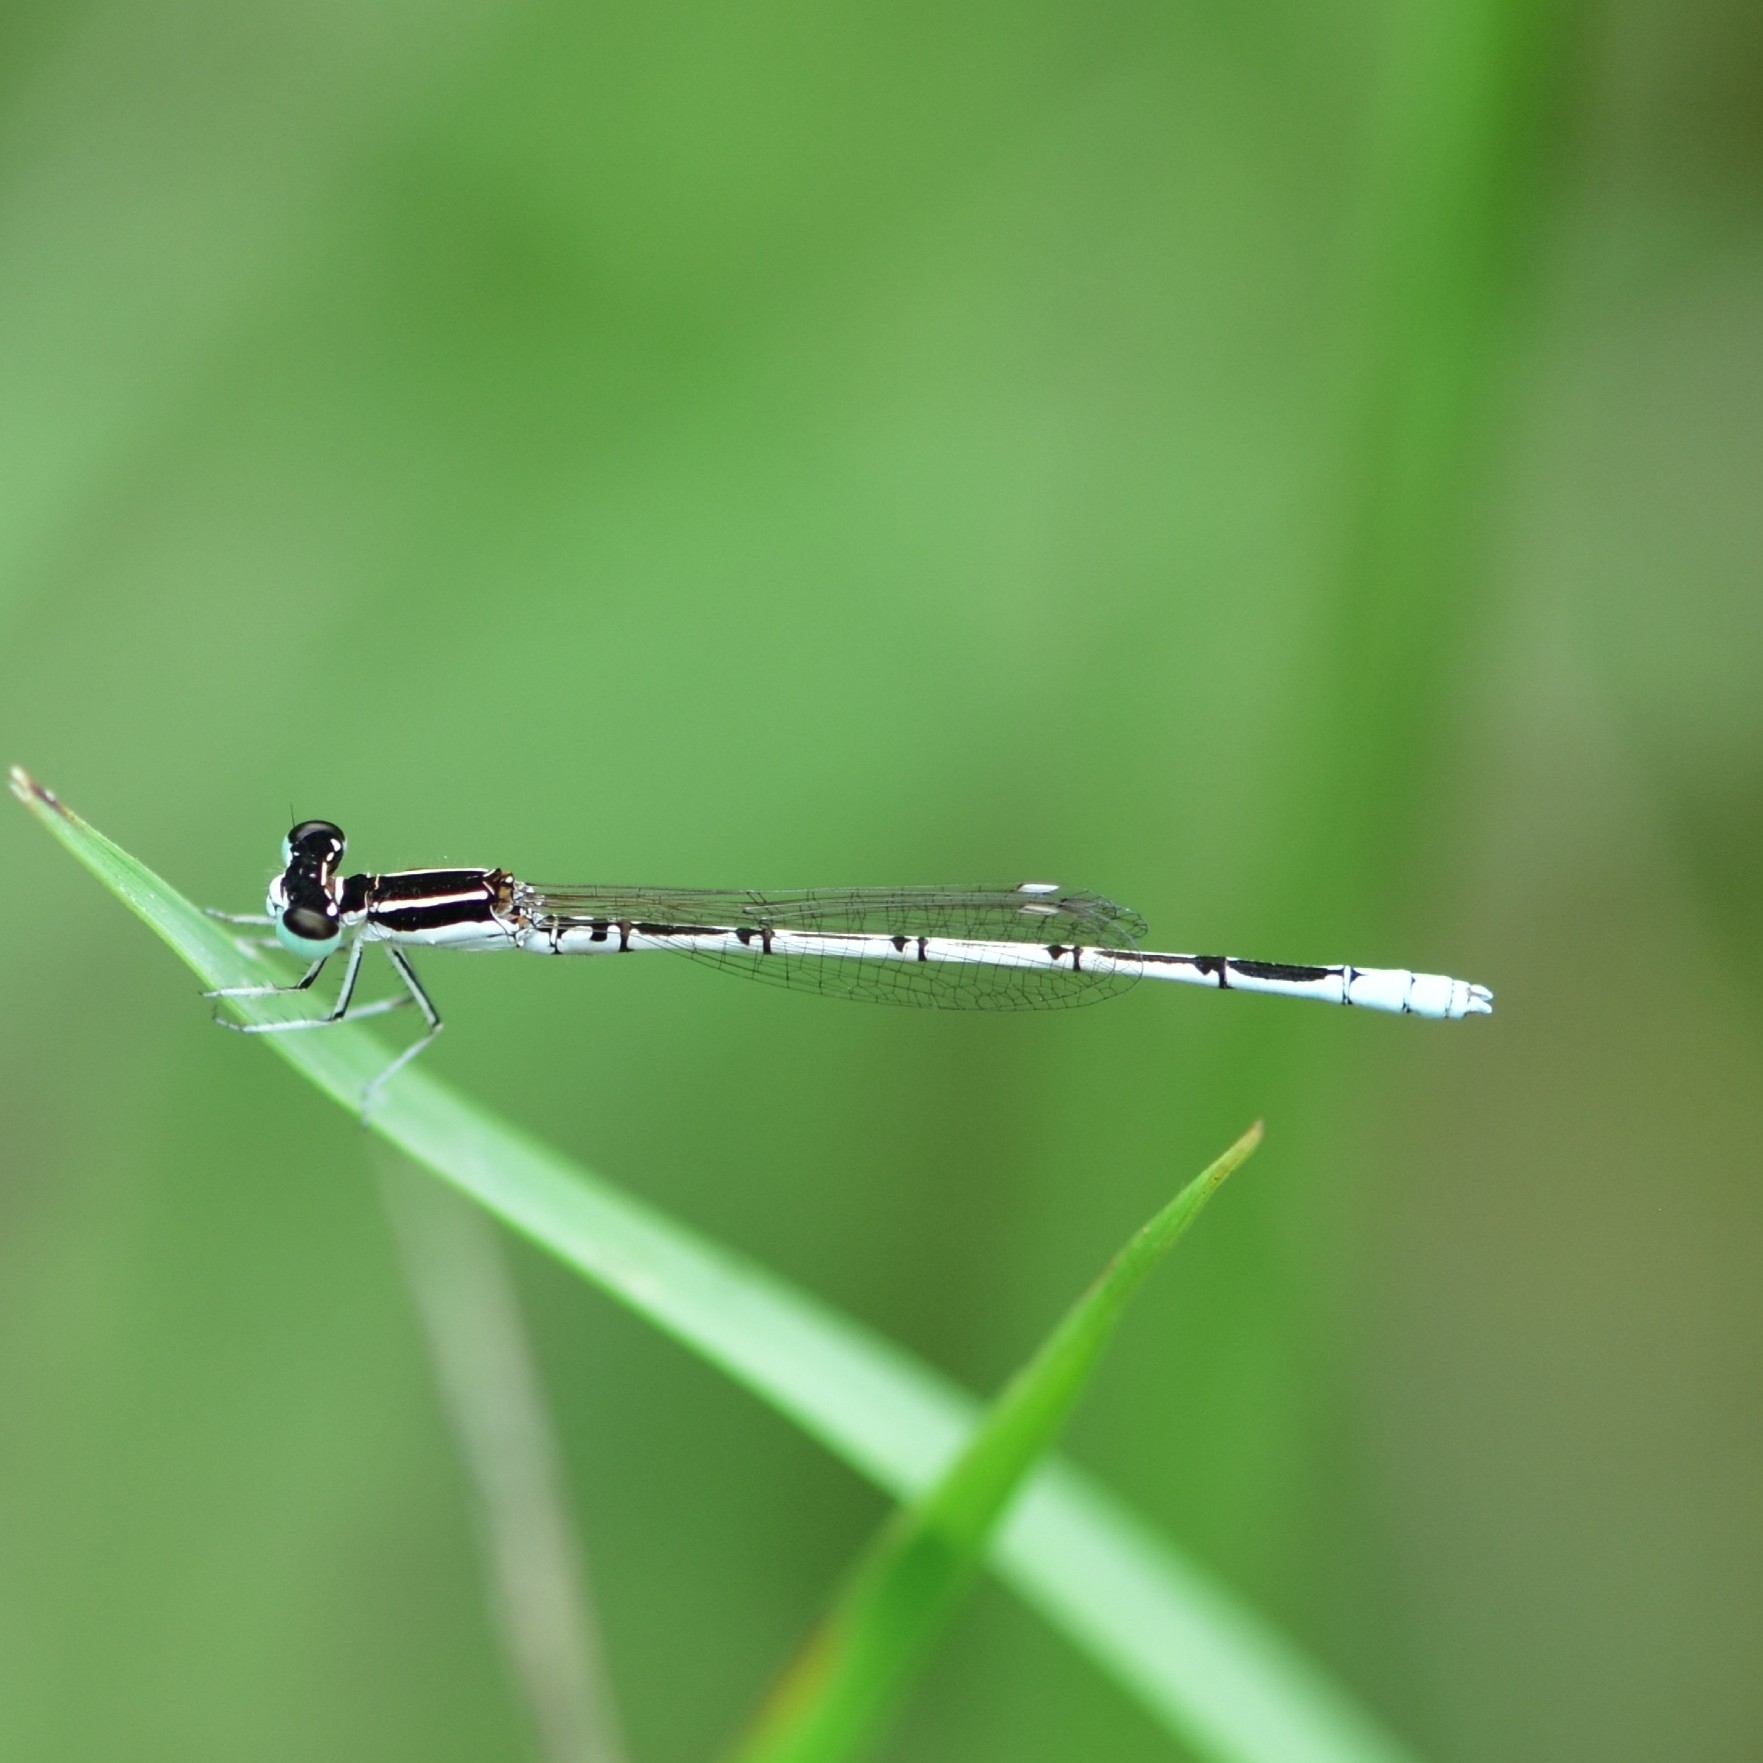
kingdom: Animalia
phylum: Arthropoda
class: Insecta
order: Odonata
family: Coenagrionidae
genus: Agriocnemis
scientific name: Agriocnemis pieris
